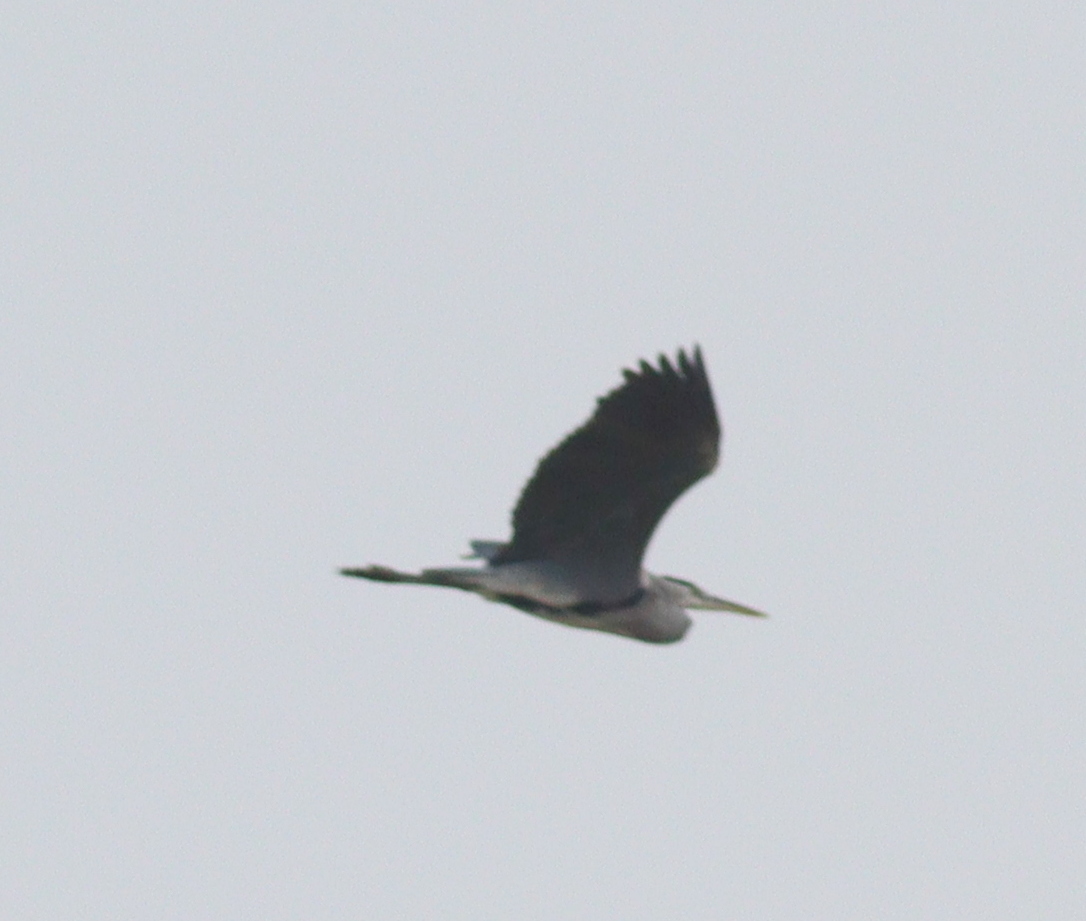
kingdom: Animalia
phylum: Chordata
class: Aves
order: Pelecaniformes
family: Ardeidae
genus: Ardea
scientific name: Ardea cinerea
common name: Grey heron
